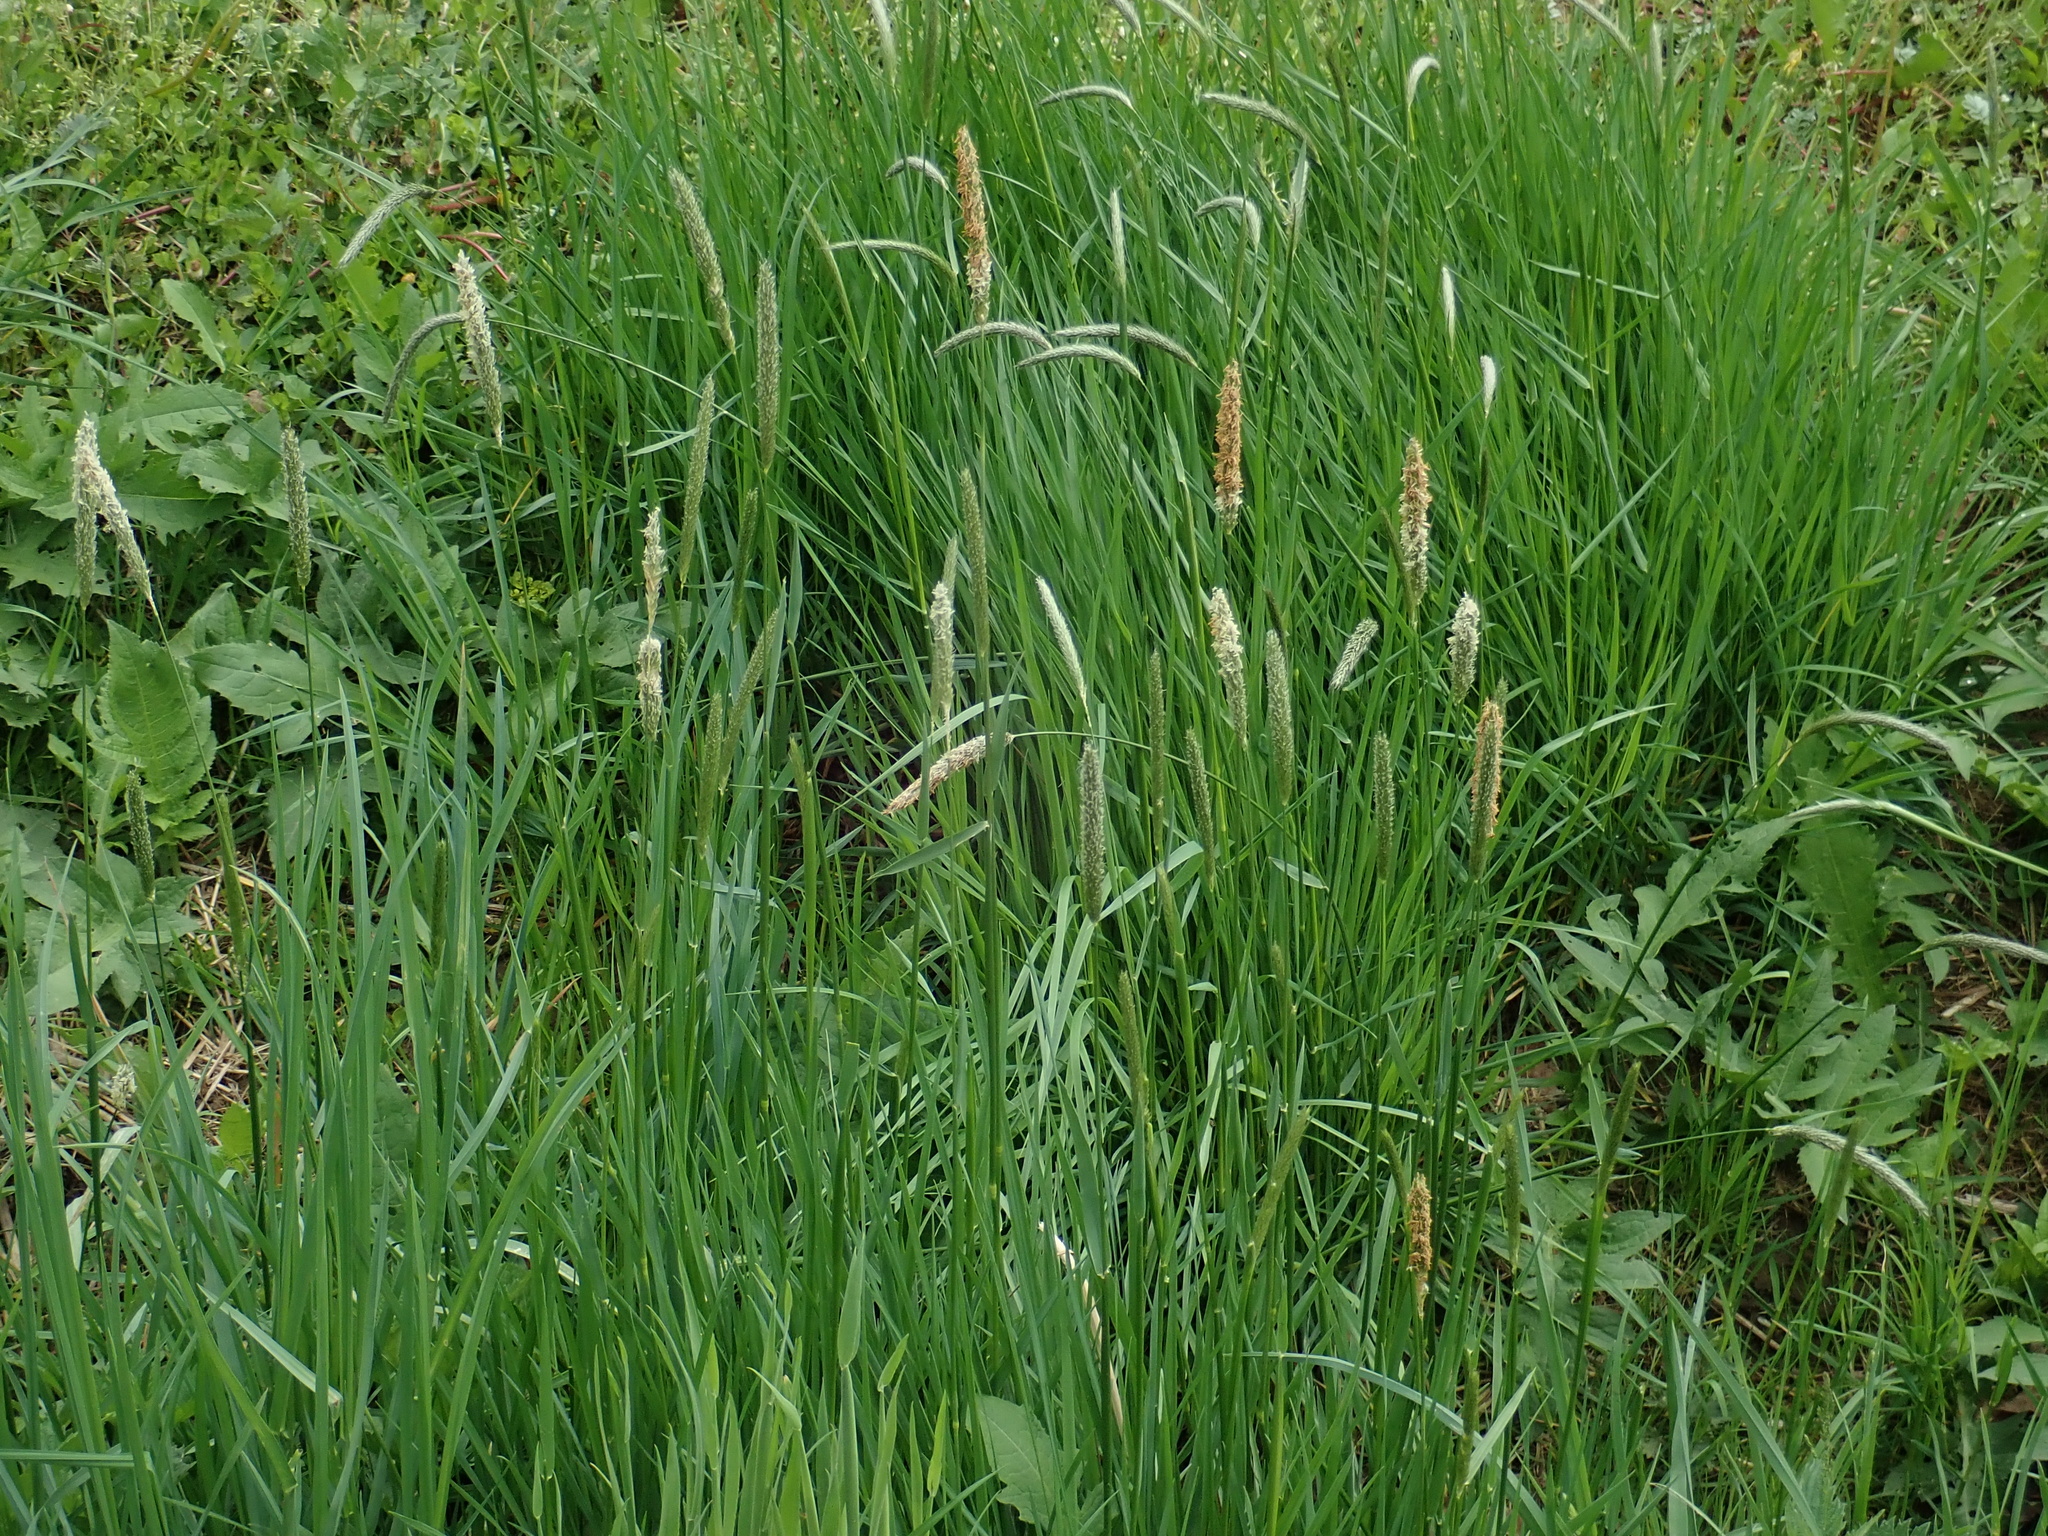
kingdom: Plantae
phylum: Tracheophyta
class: Liliopsida
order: Poales
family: Poaceae
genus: Alopecurus
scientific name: Alopecurus pratensis
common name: Meadow foxtail
